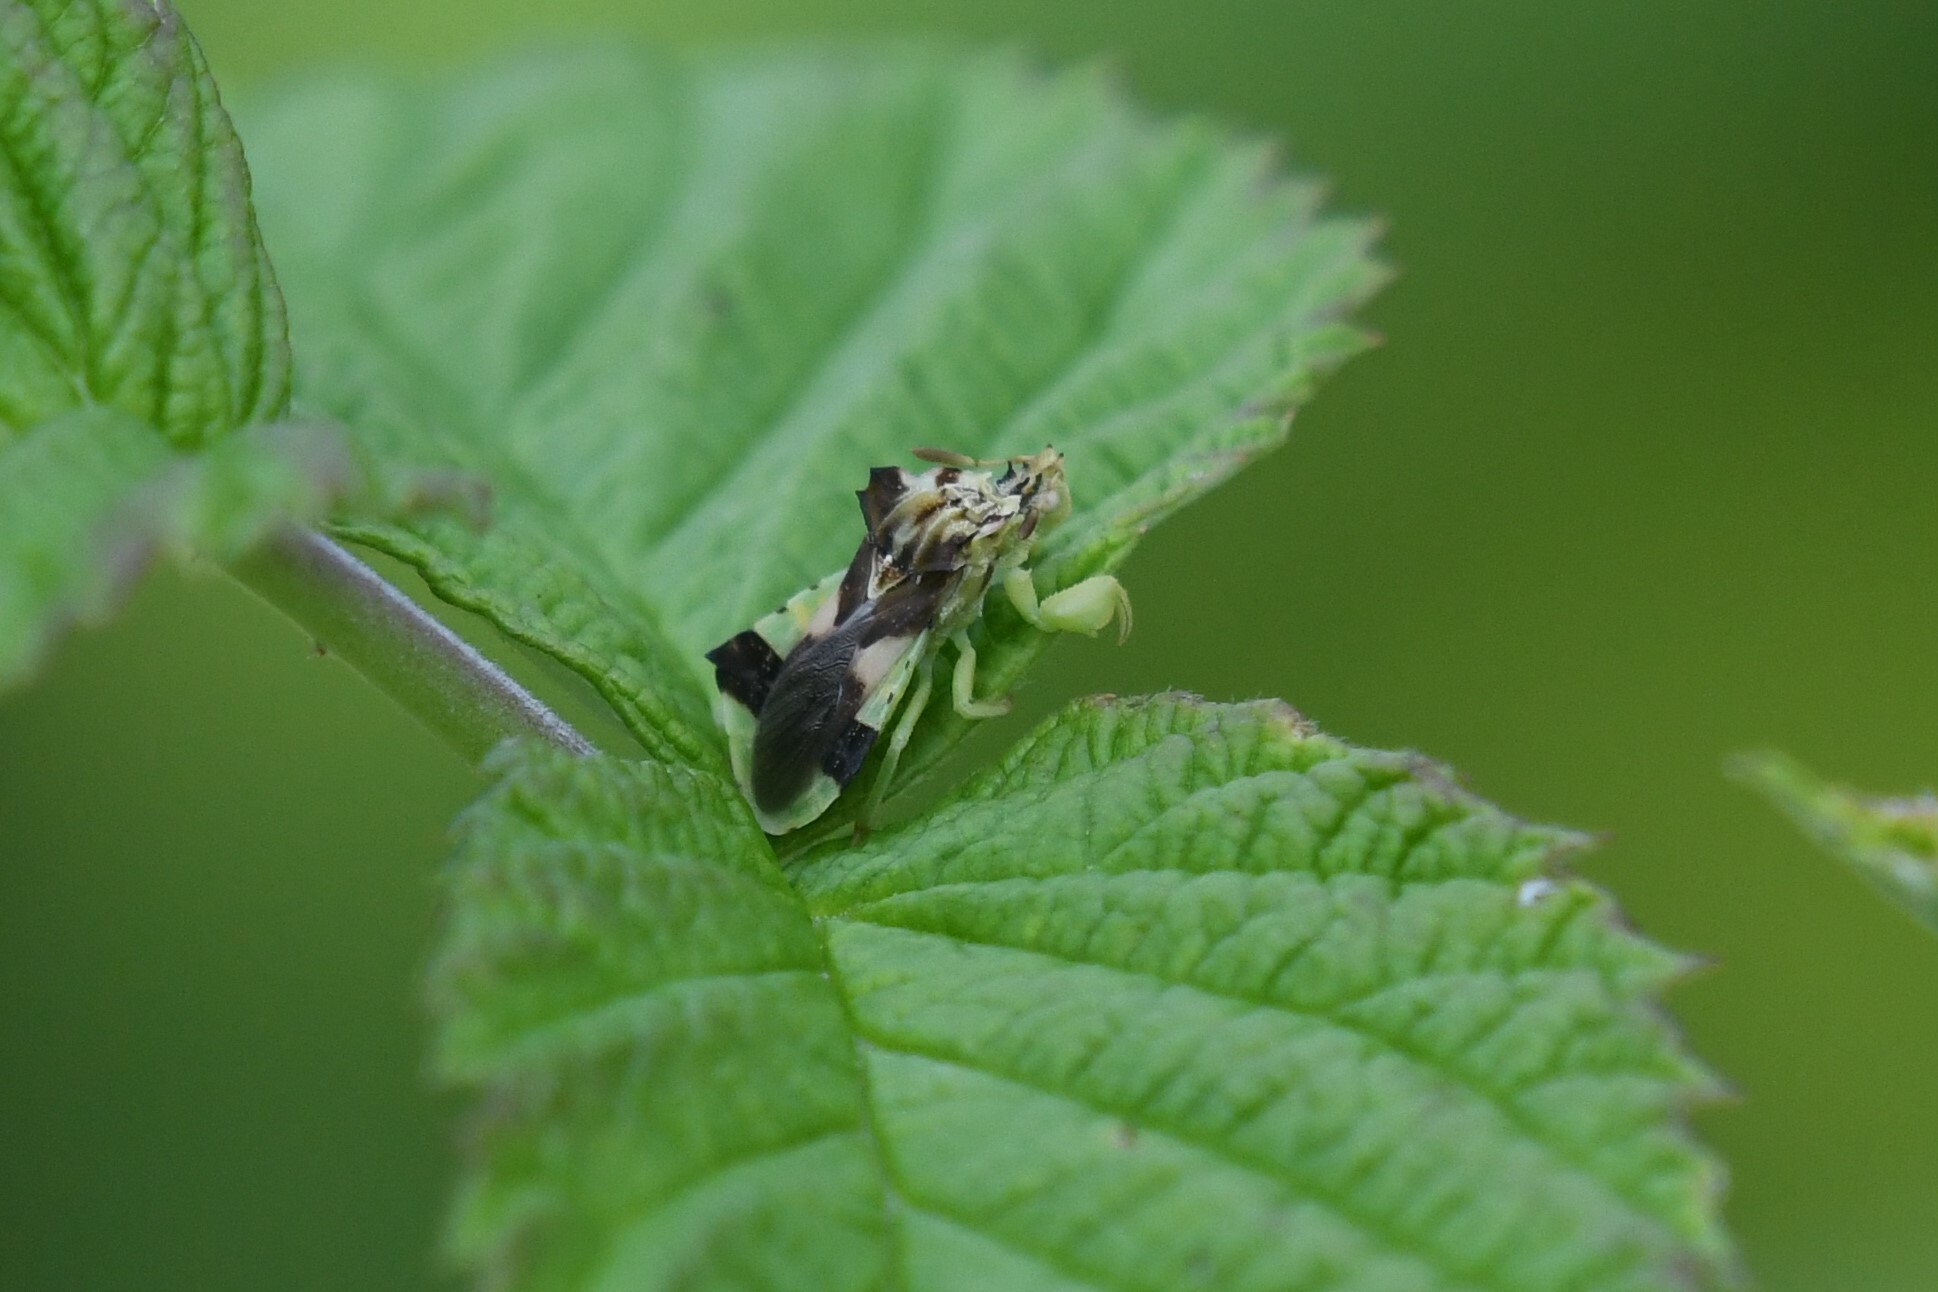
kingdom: Animalia
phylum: Arthropoda
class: Insecta
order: Hemiptera
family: Reduviidae
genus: Phymata
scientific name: Phymata americana
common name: Jagged ambush bug
